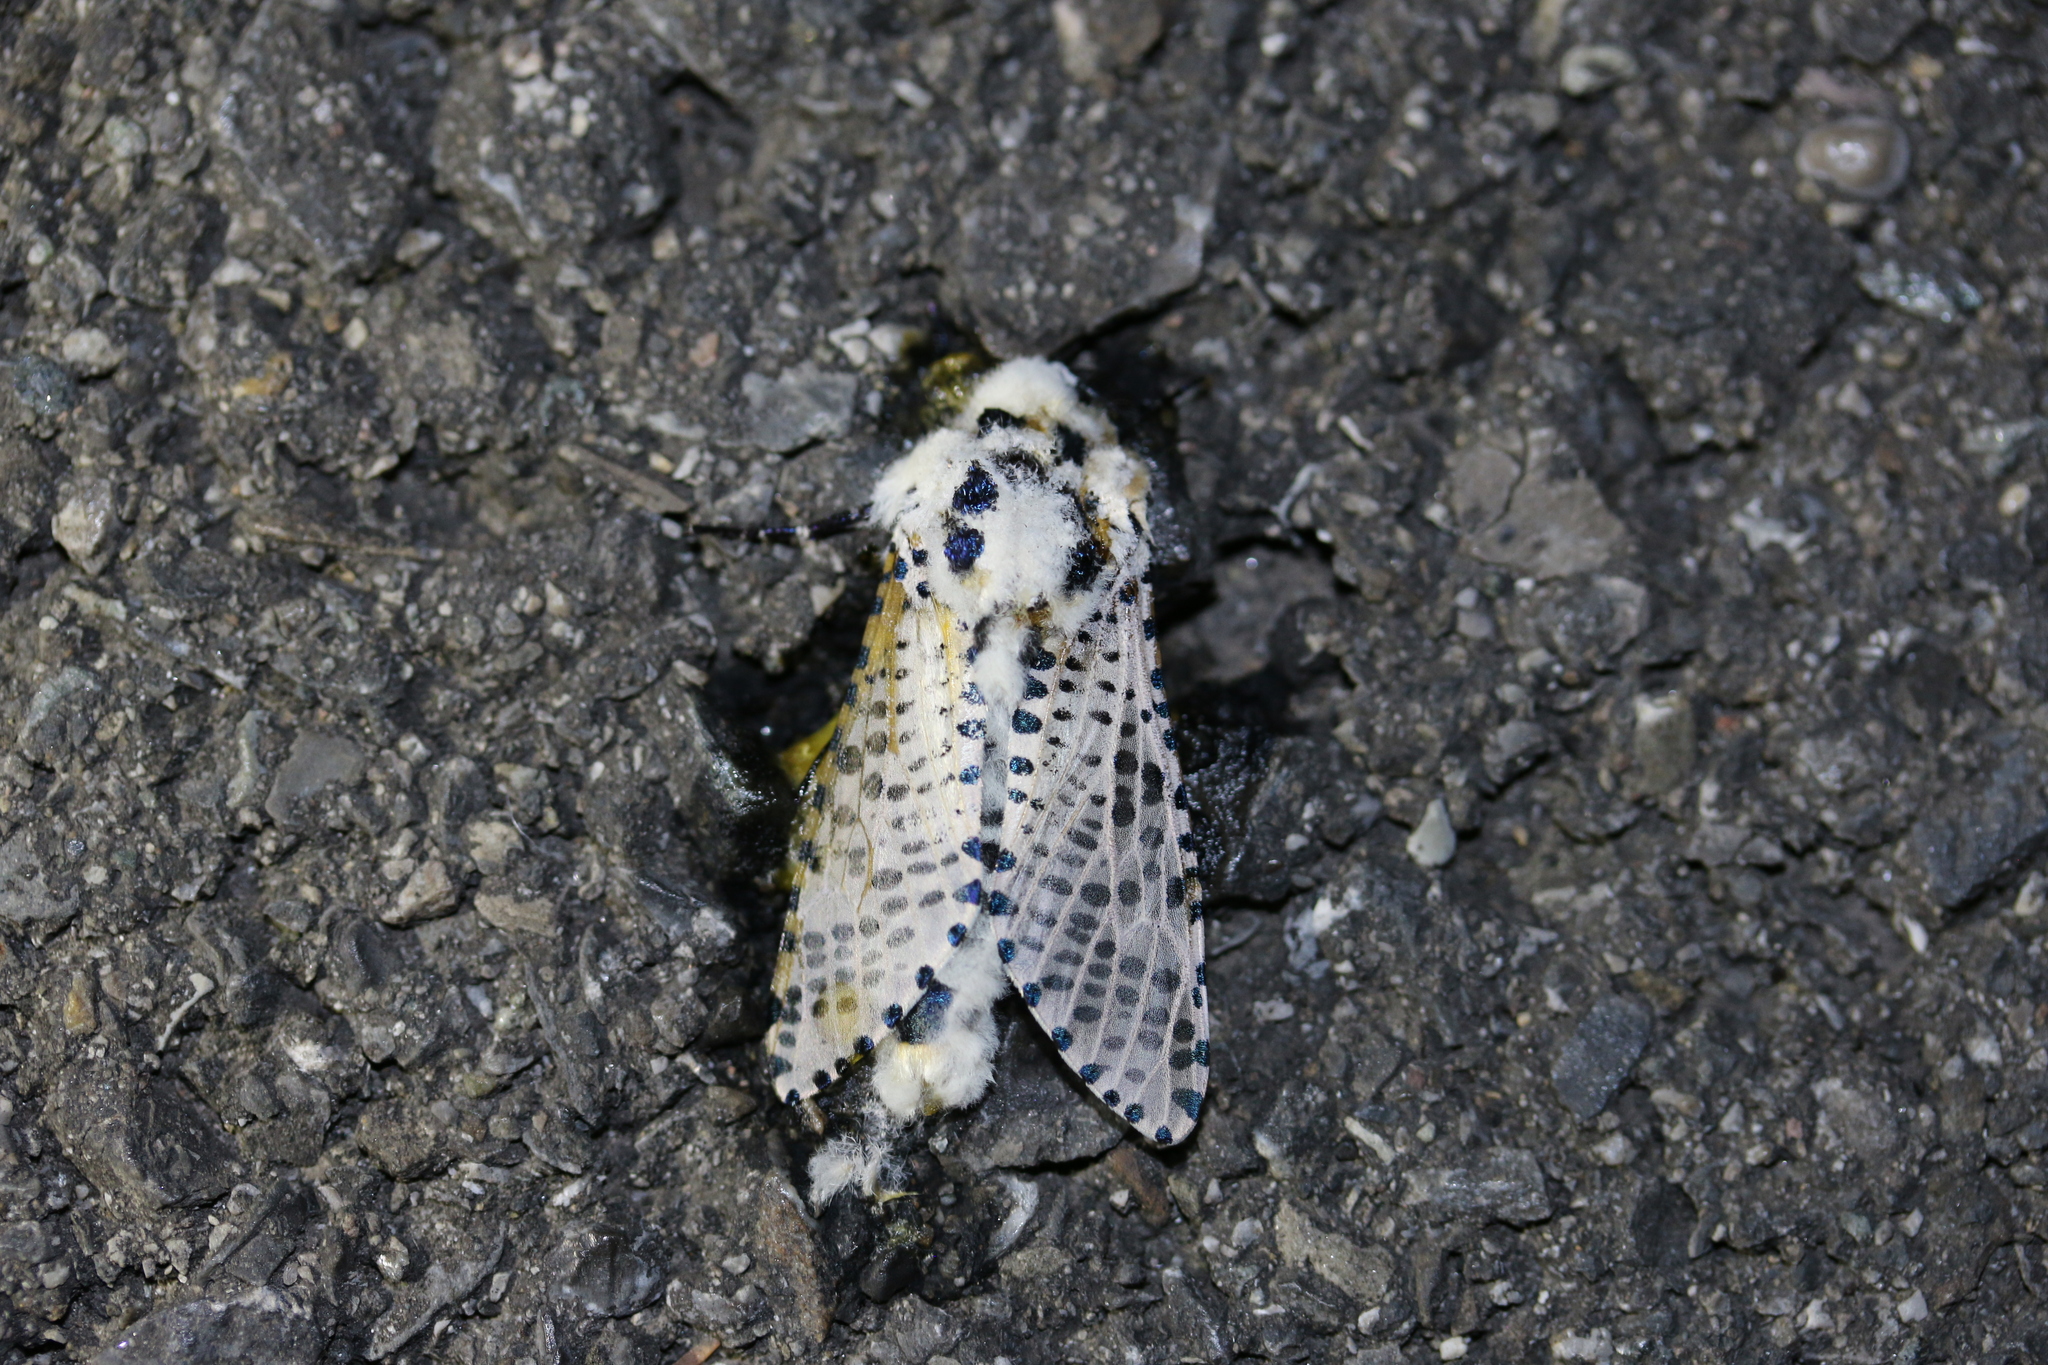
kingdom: Animalia
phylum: Arthropoda
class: Insecta
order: Lepidoptera
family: Cossidae
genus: Zeuzera
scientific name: Zeuzera pyrina
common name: Leopard moth
